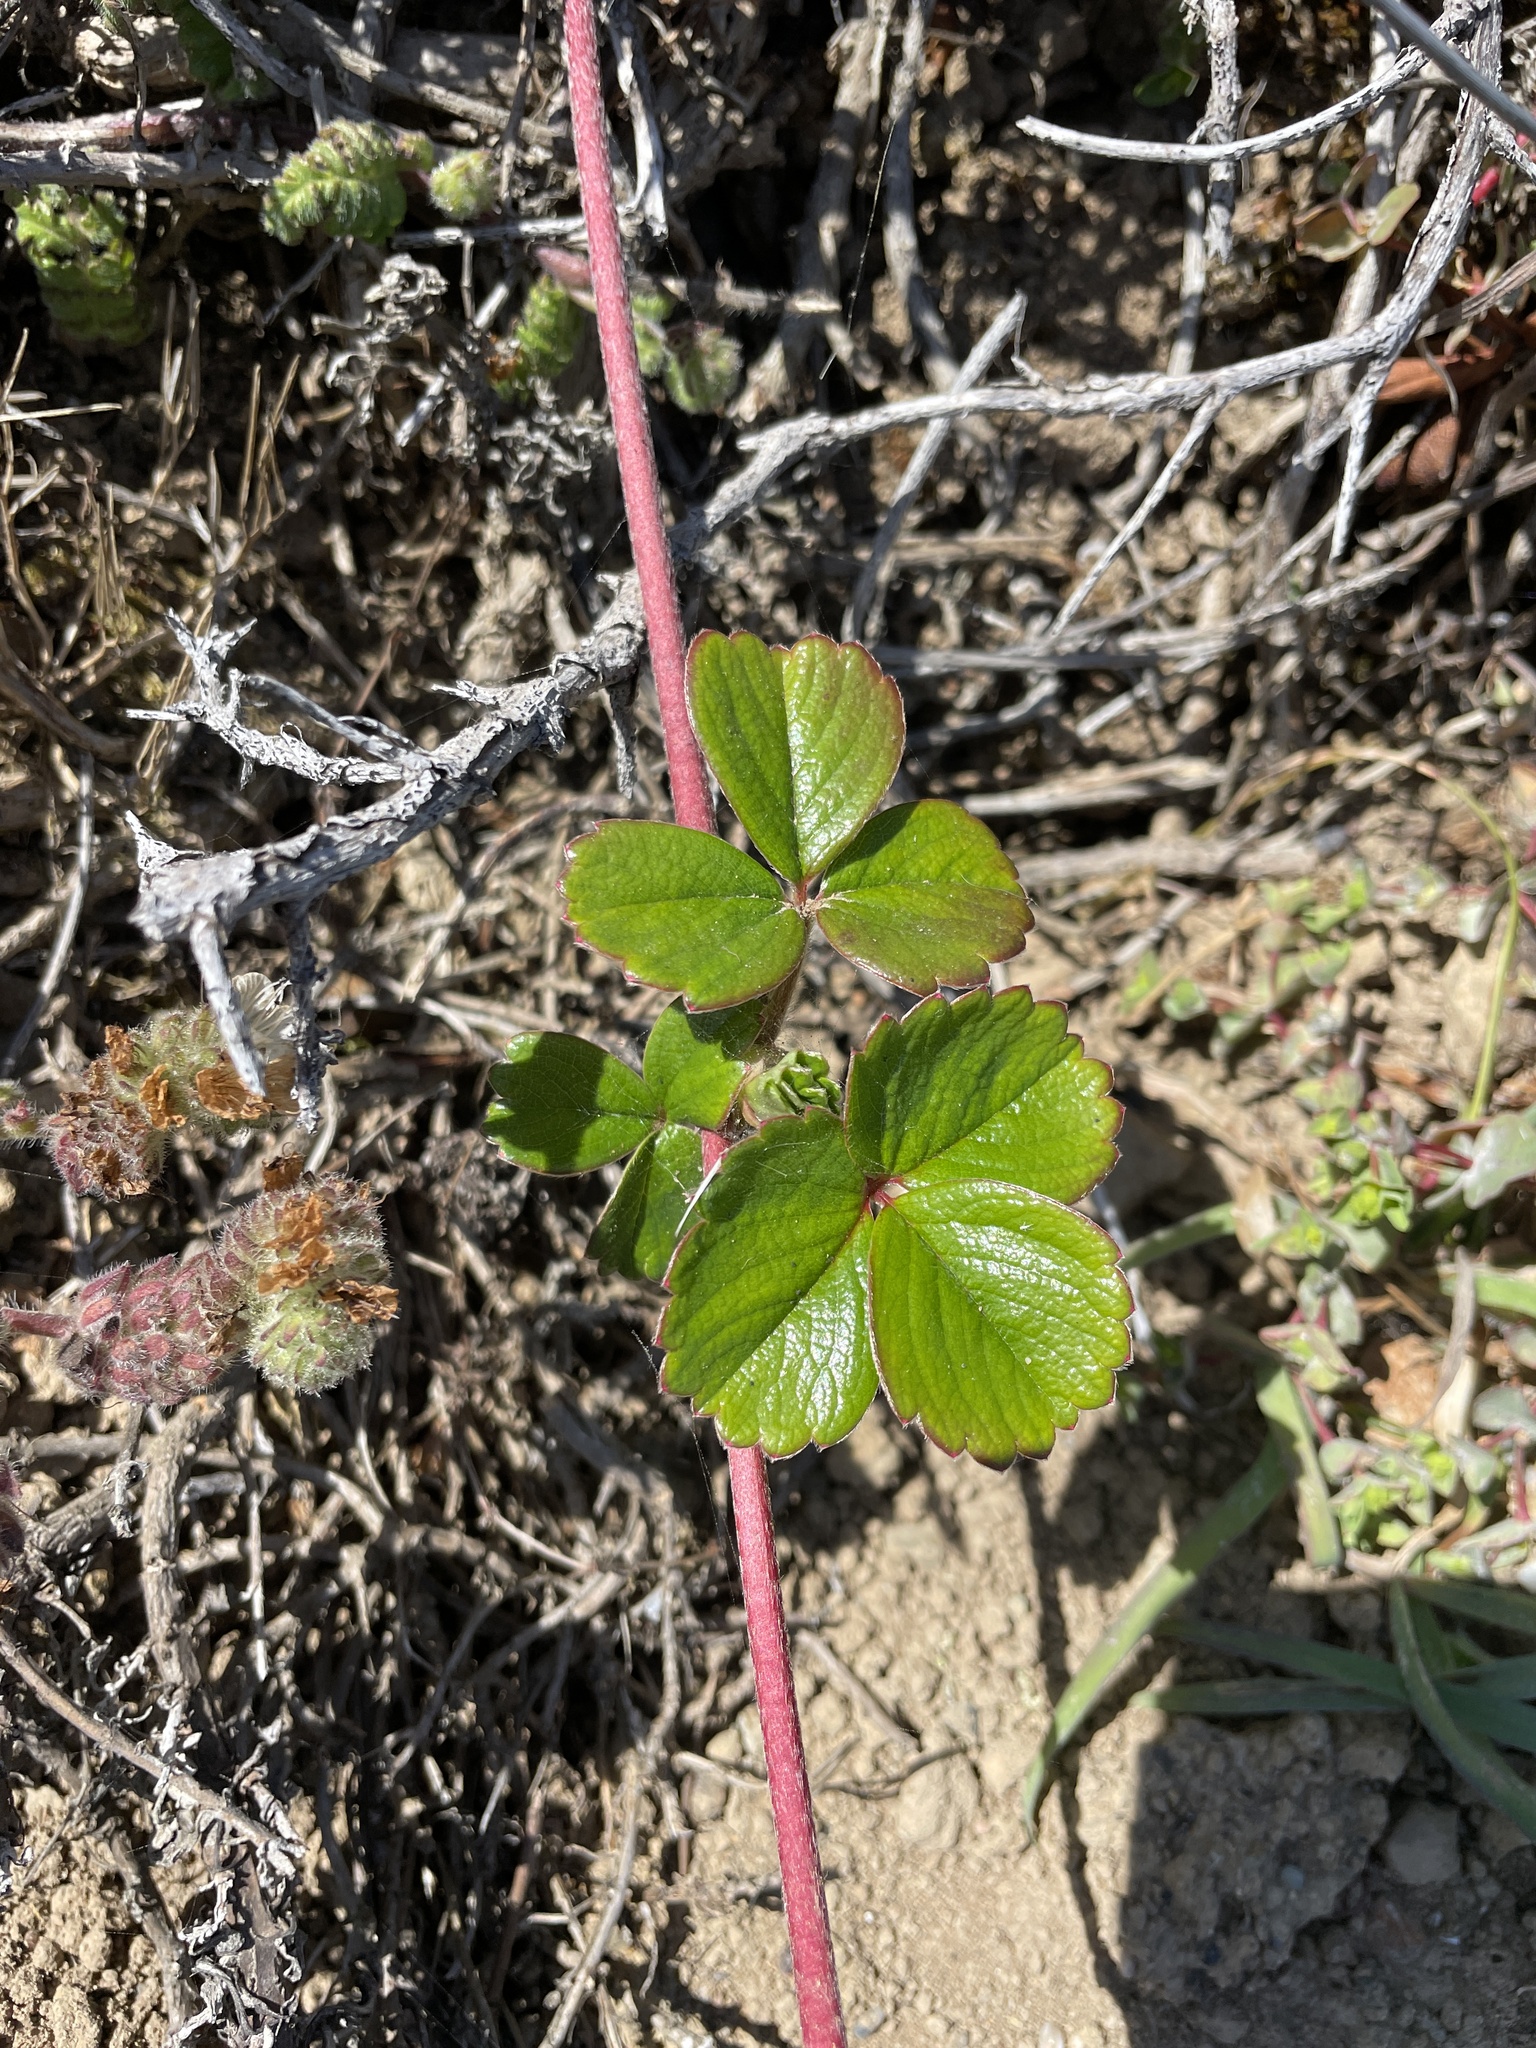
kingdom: Plantae
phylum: Tracheophyta
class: Magnoliopsida
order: Rosales
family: Rosaceae
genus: Fragaria
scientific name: Fragaria chiloensis
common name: Beach strawberry
